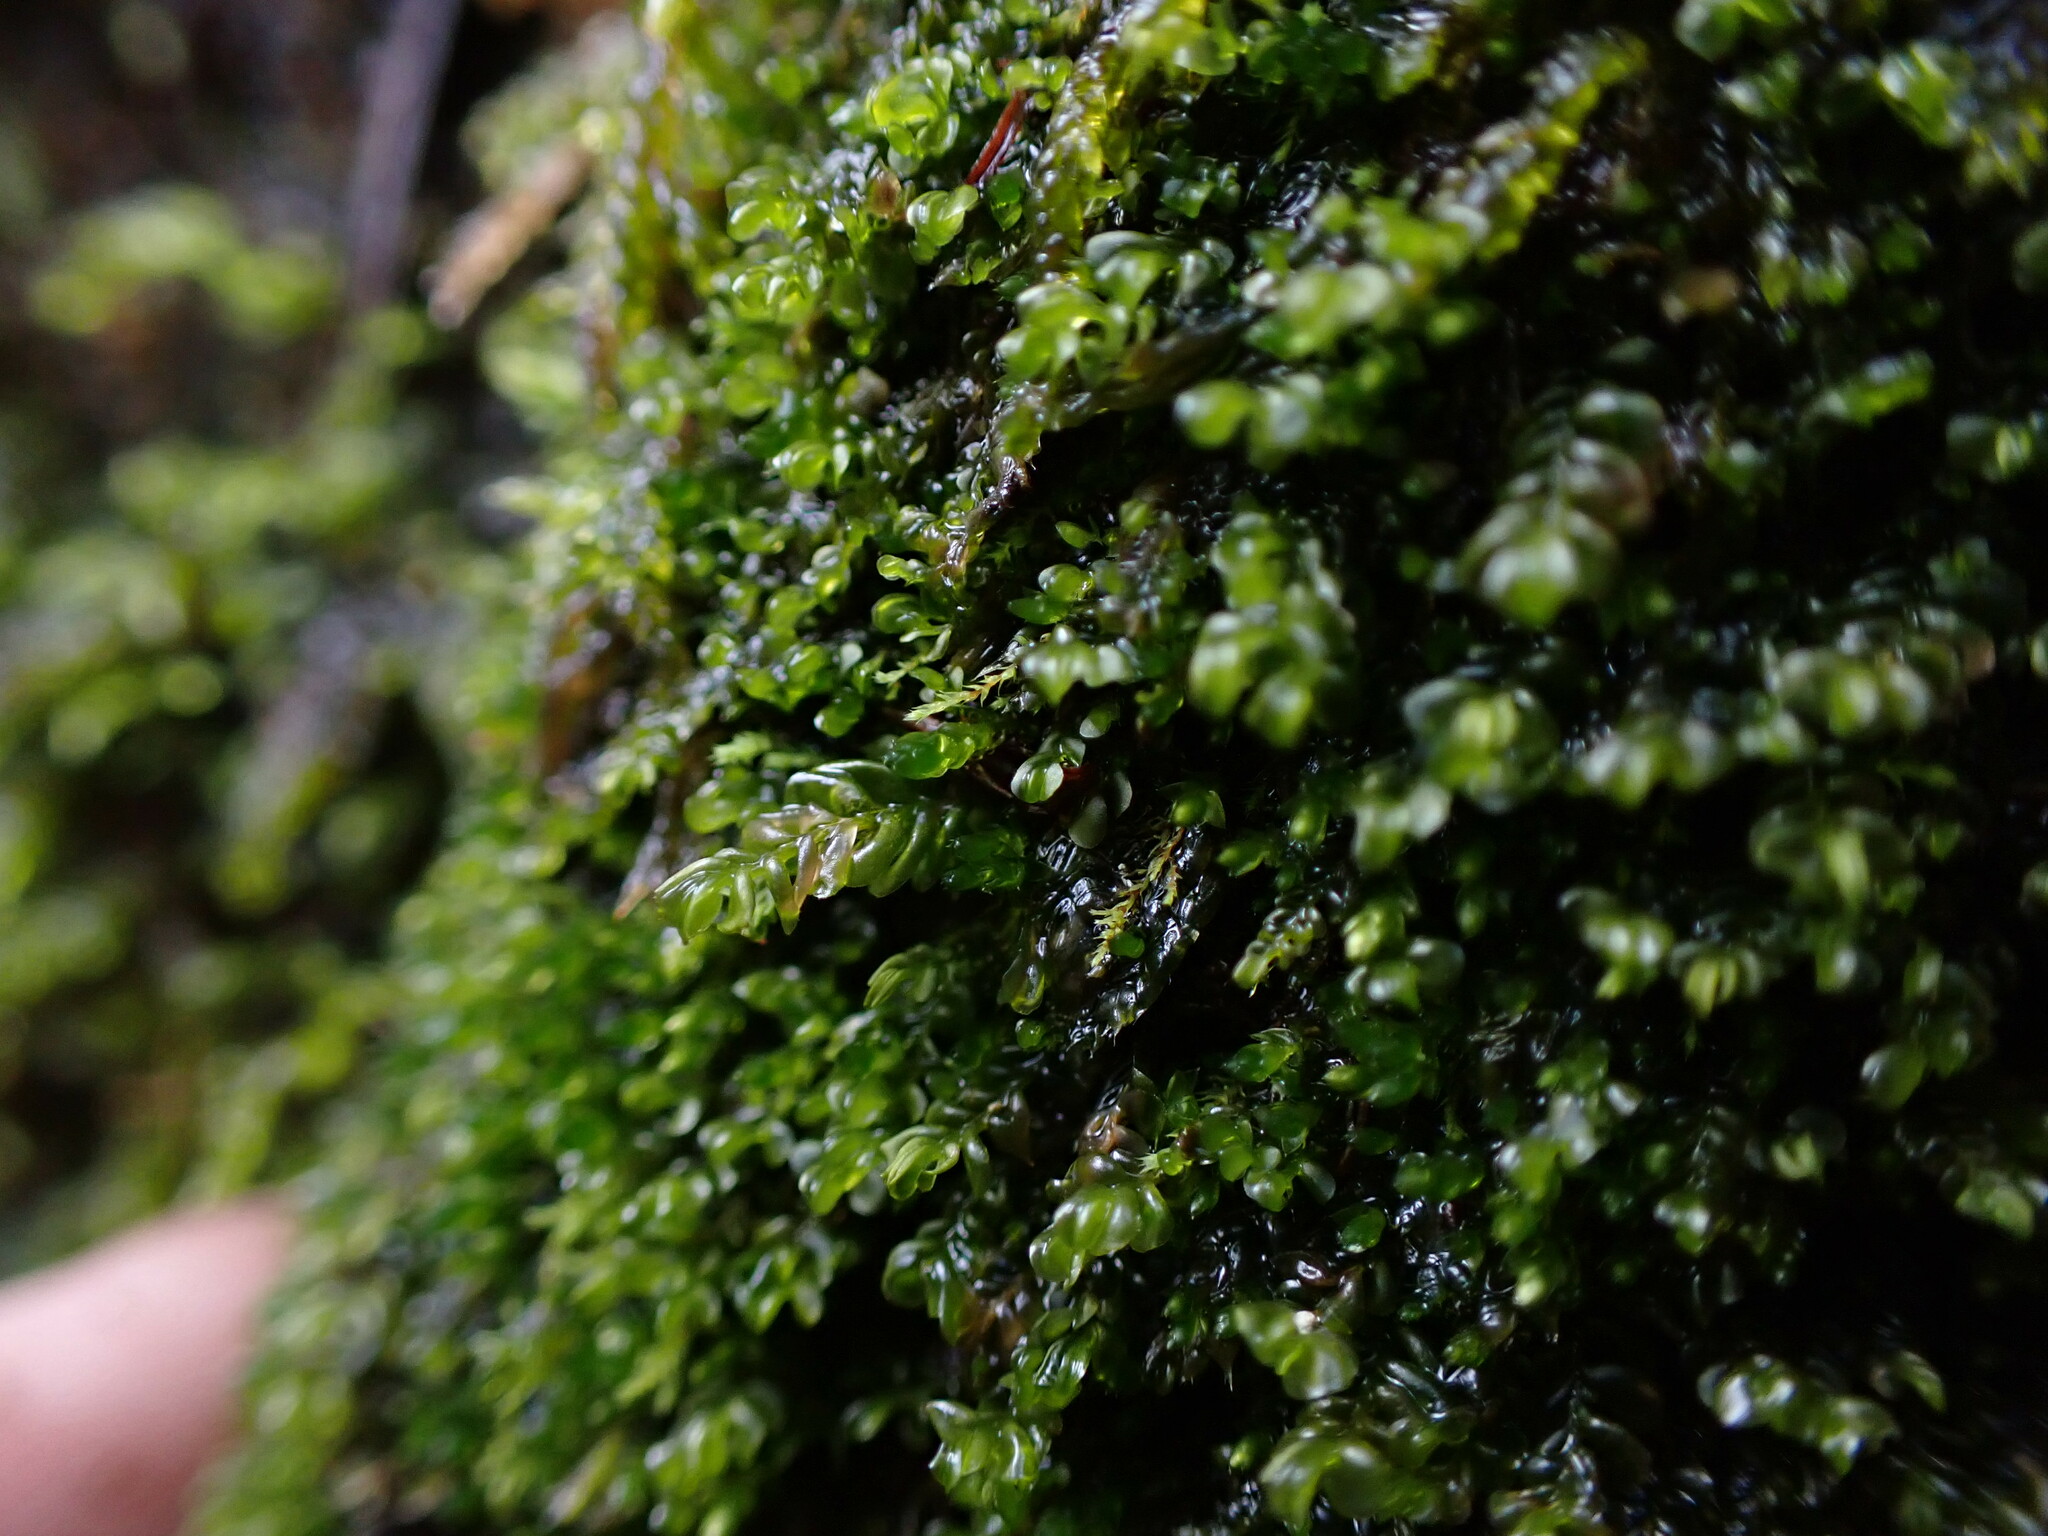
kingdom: Plantae
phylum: Marchantiophyta
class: Jungermanniopsida
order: Jungermanniales
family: Plagiochilaceae
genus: Plagiochila
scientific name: Plagiochila porelloides
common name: Lesser featherwort
